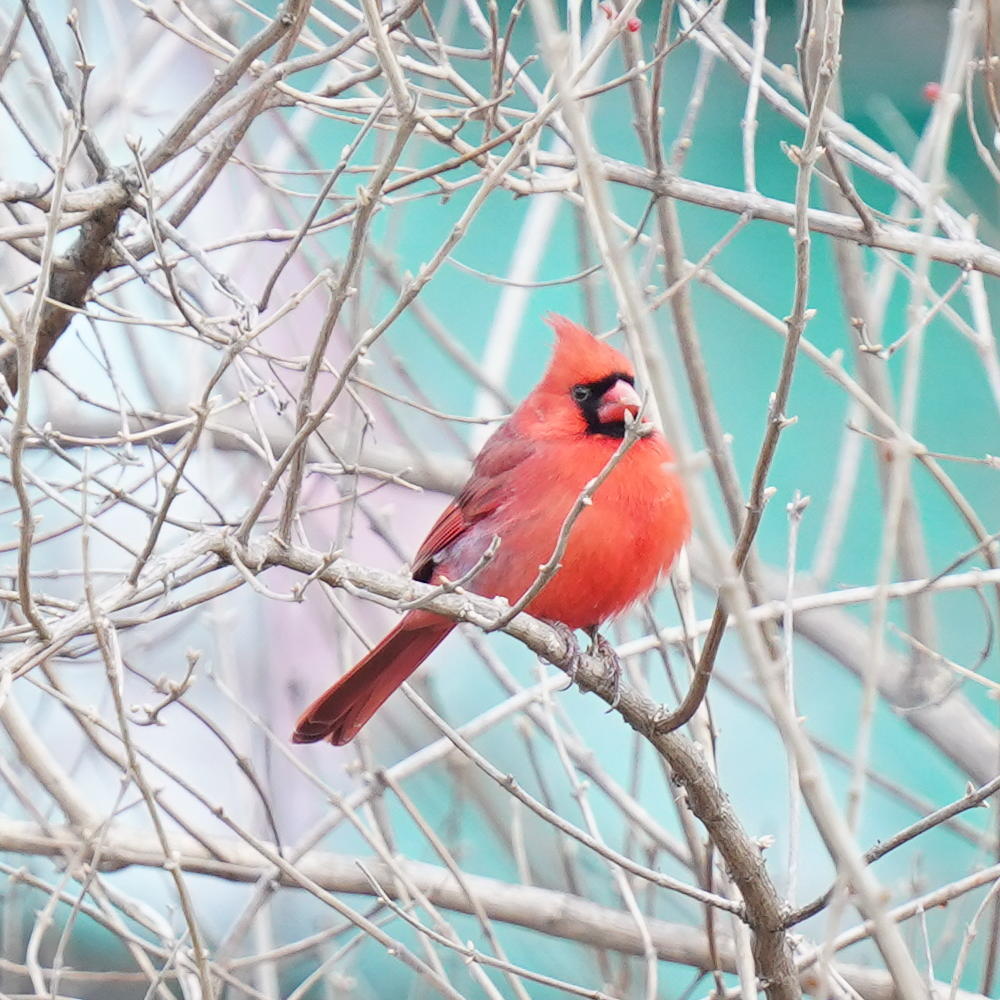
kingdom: Animalia
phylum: Chordata
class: Aves
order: Passeriformes
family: Cardinalidae
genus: Cardinalis
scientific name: Cardinalis cardinalis
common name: Northern cardinal
